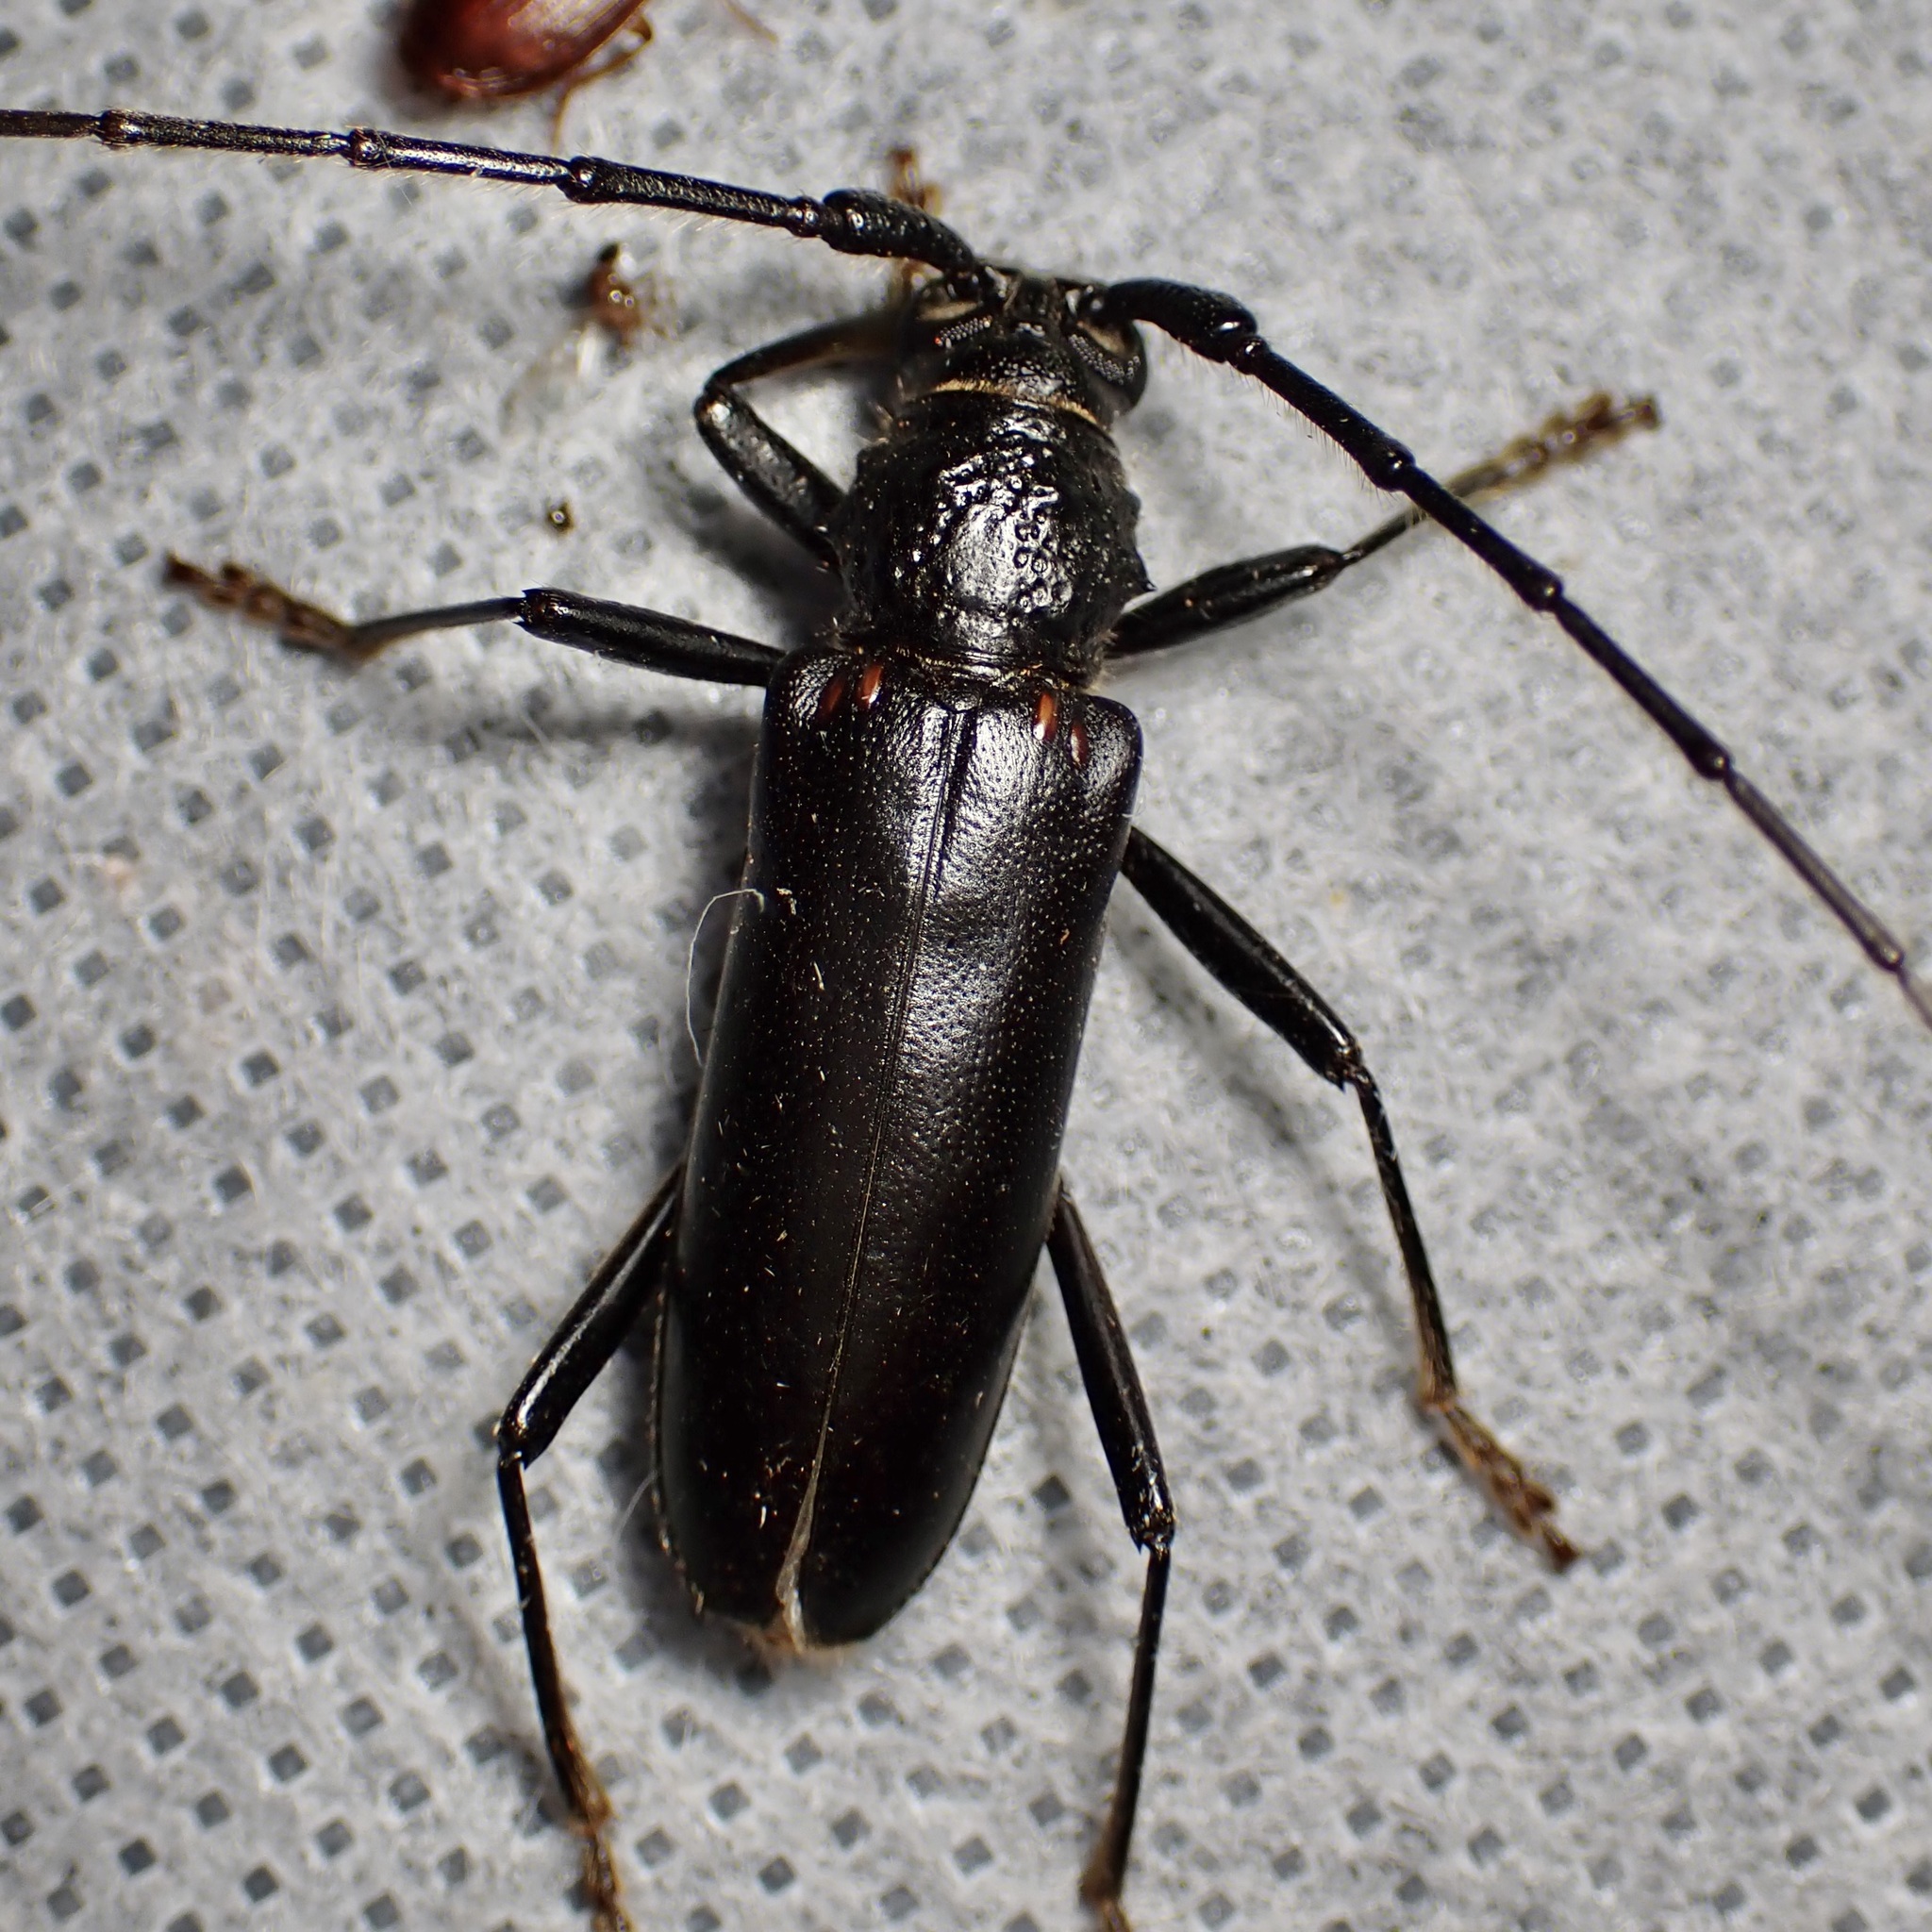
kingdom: Animalia
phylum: Arthropoda
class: Insecta
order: Coleoptera
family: Cerambycidae
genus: Susuacanga
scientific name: Susuacanga ulkei
